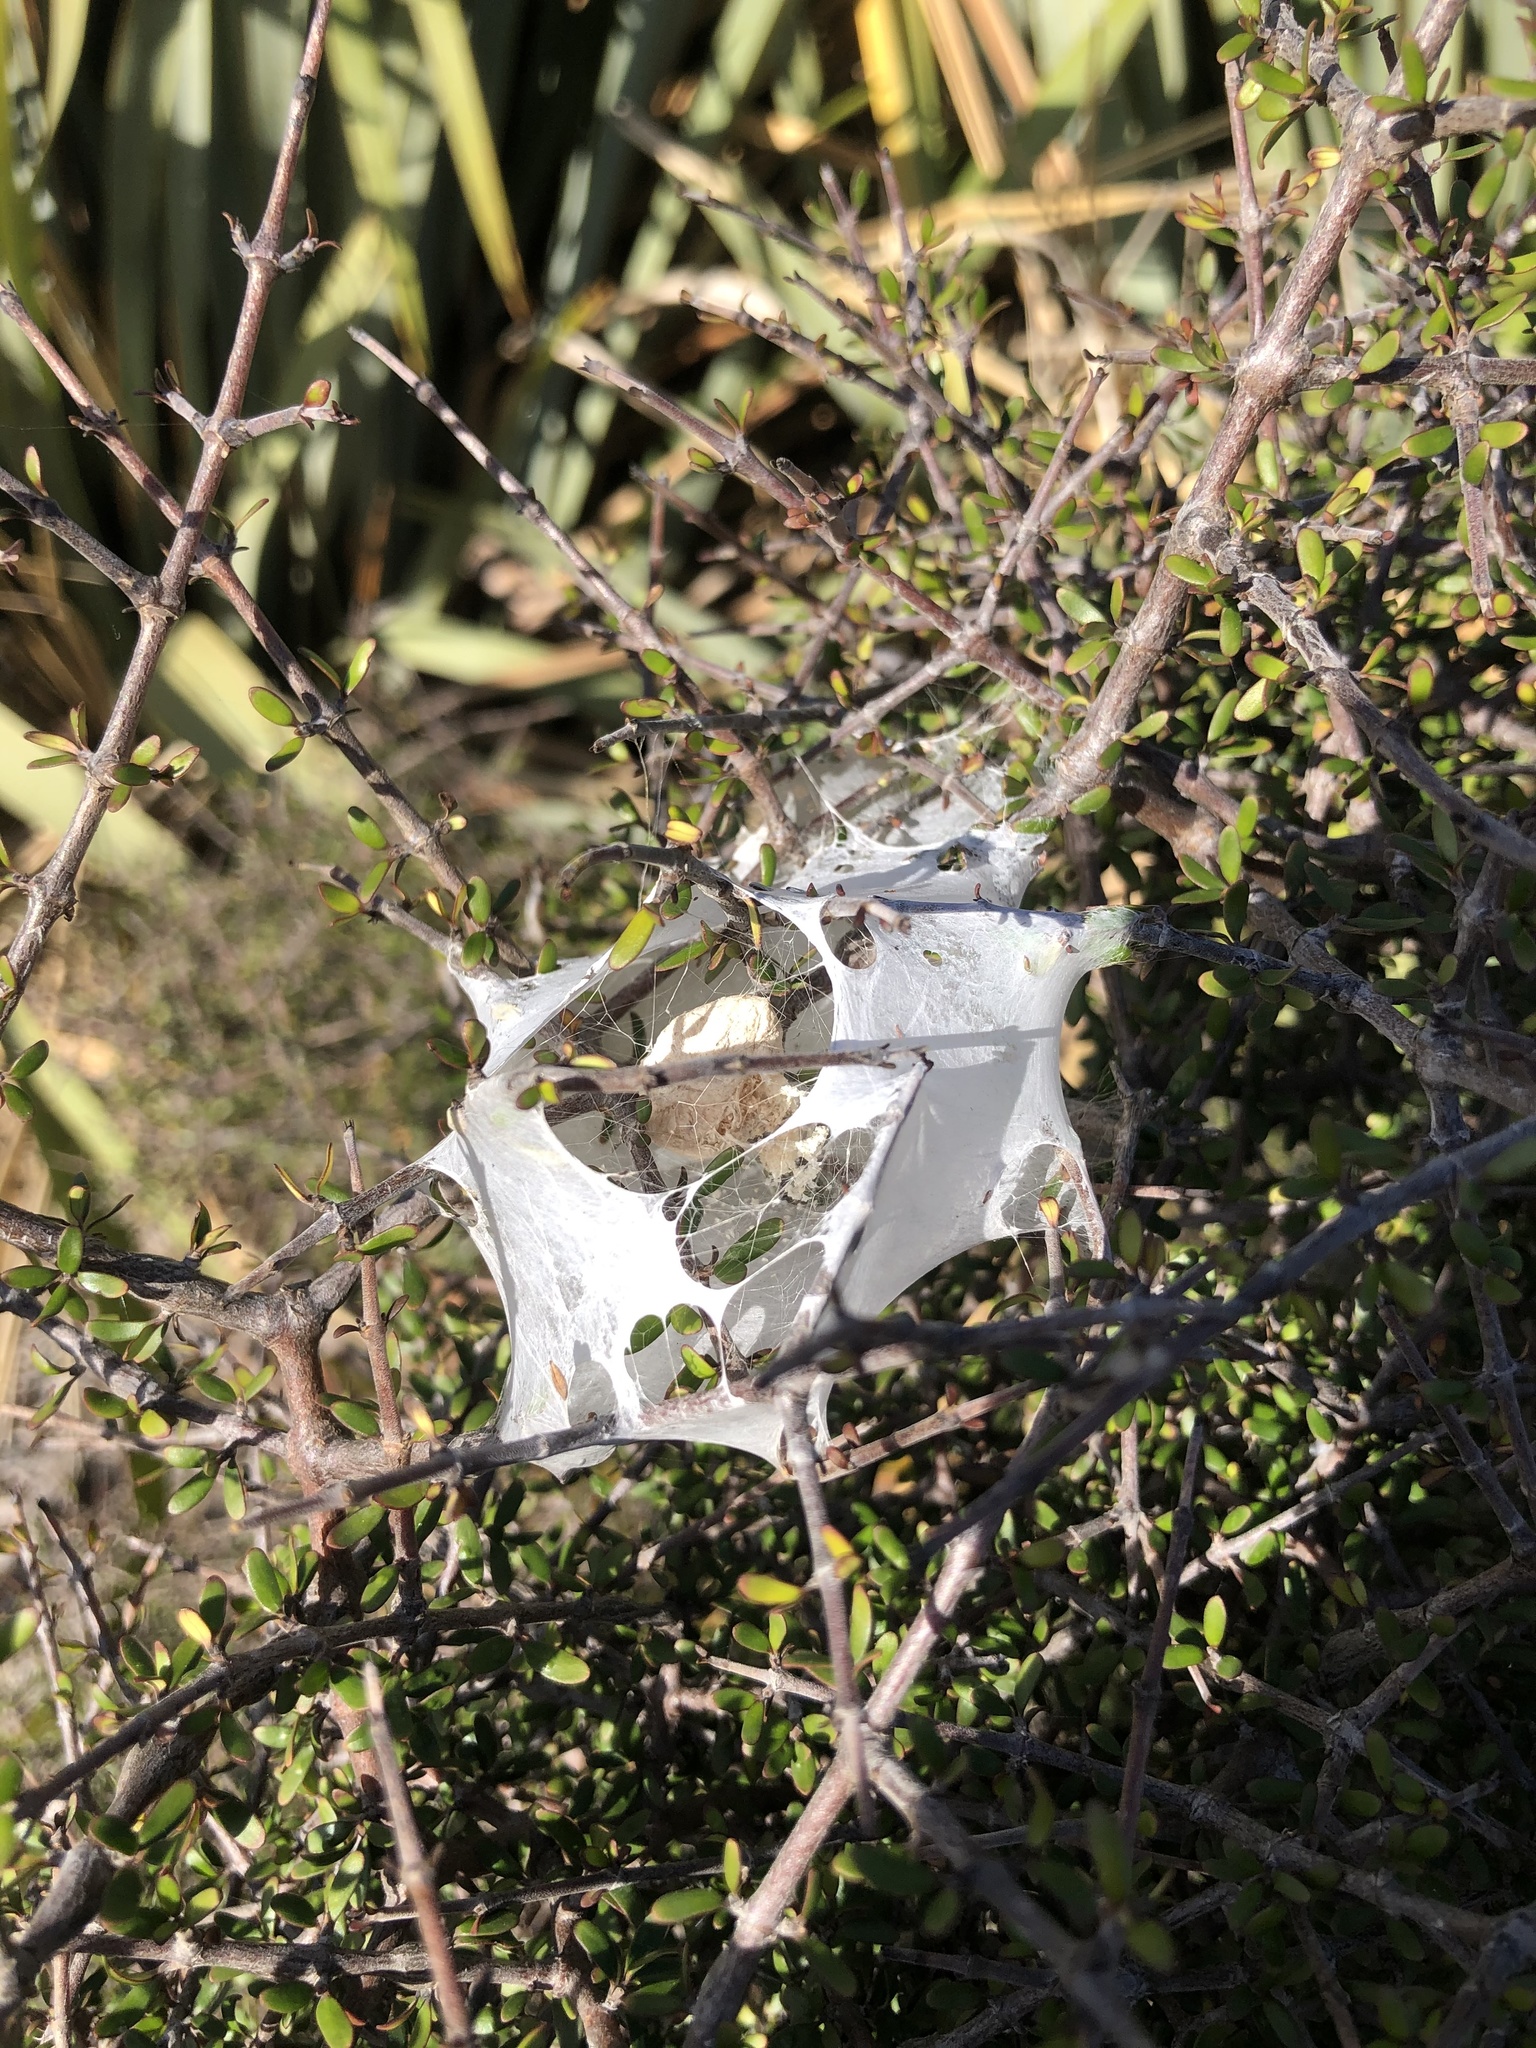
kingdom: Animalia
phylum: Arthropoda
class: Arachnida
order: Araneae
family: Pisauridae
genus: Dolomedes
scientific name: Dolomedes minor
